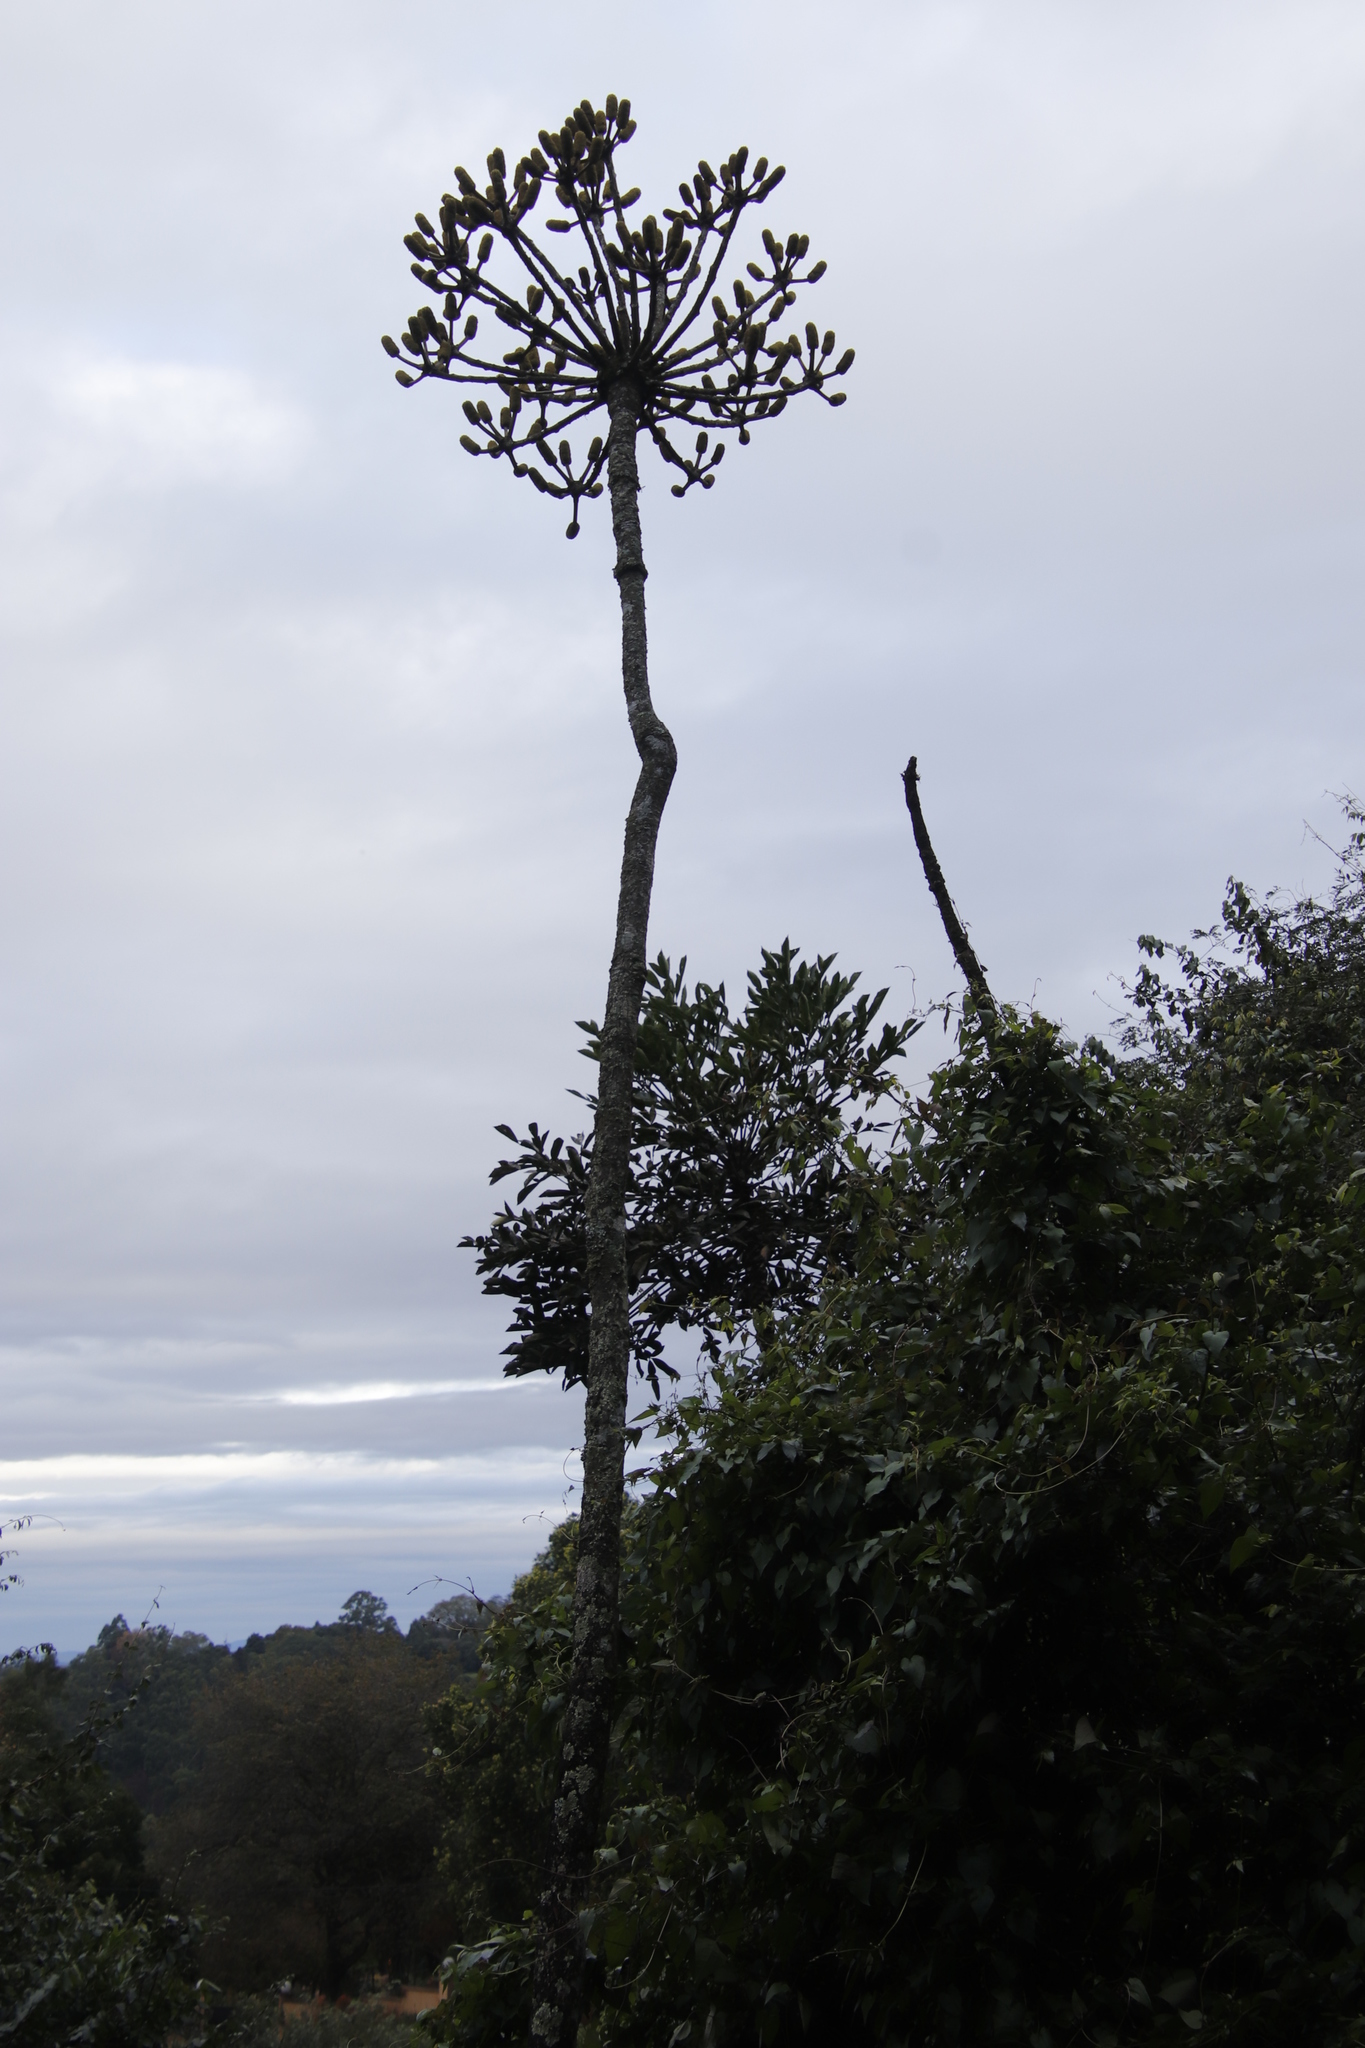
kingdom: Plantae
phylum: Tracheophyta
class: Magnoliopsida
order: Apiales
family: Araliaceae
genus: Cussonia
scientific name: Cussonia sphaerocephala
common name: Forest cabbage-tree
